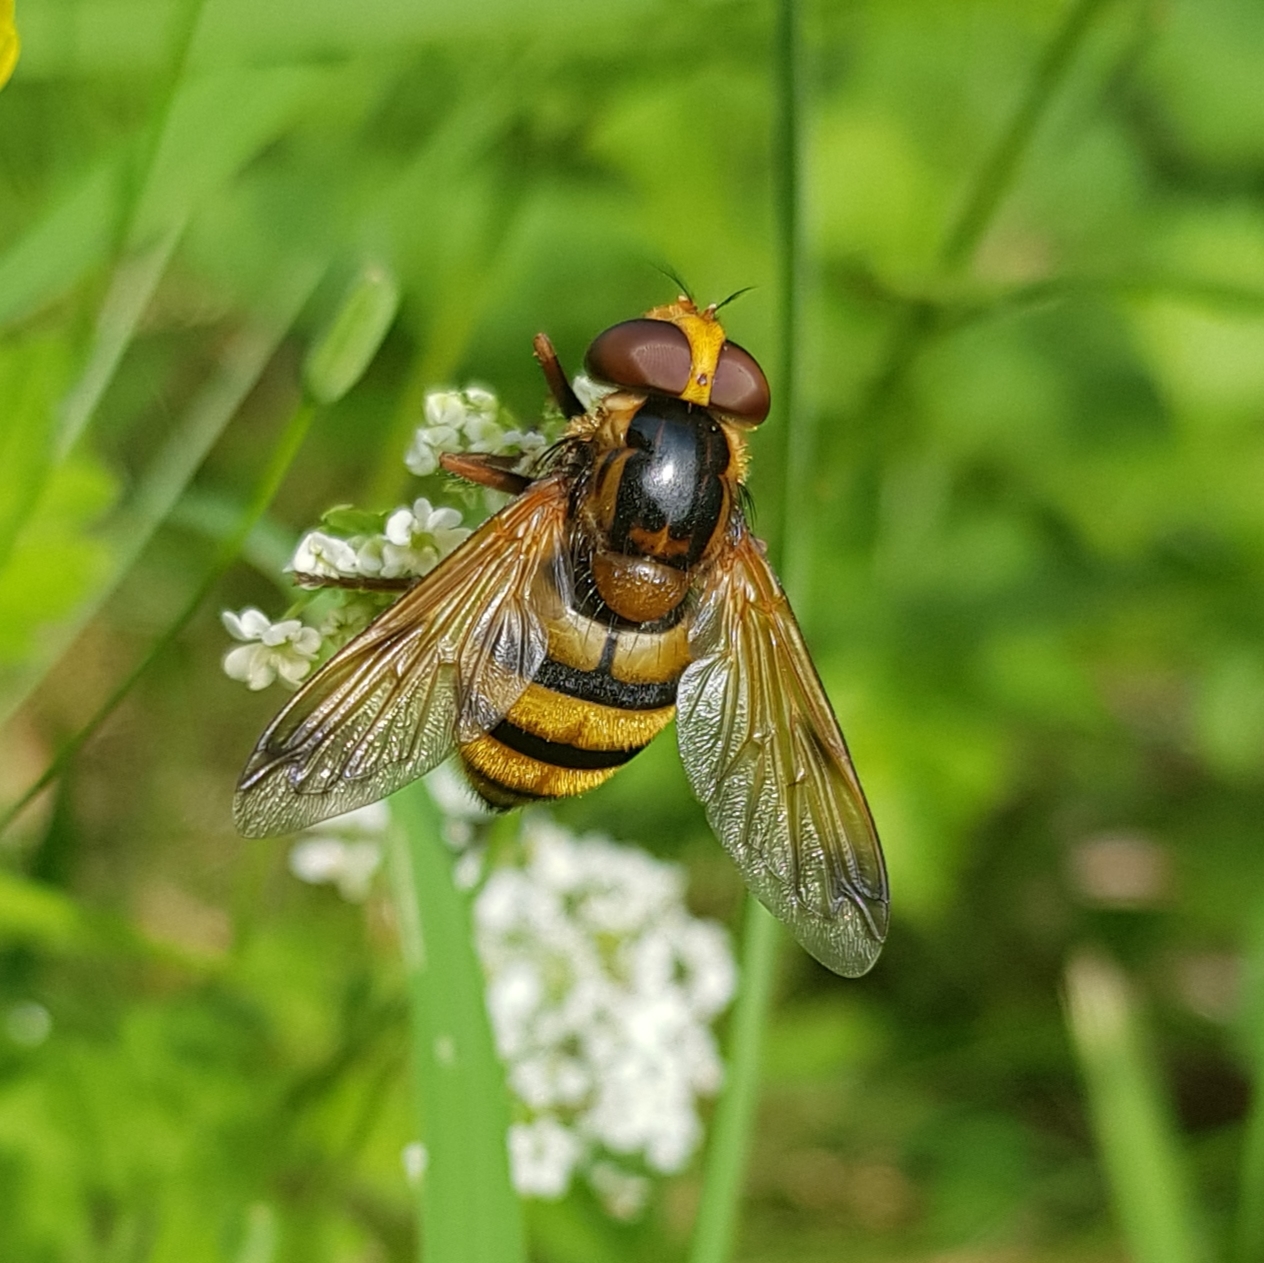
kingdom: Animalia
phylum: Arthropoda
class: Insecta
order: Diptera
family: Syrphidae
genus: Volucella
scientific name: Volucella inanis
